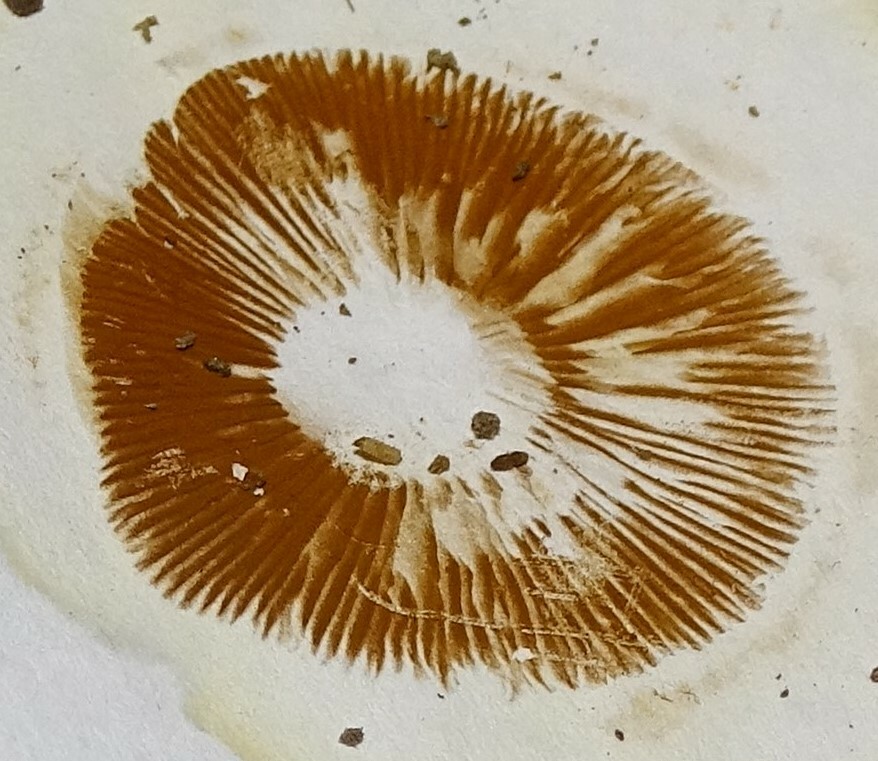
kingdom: Fungi
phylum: Basidiomycota
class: Agaricomycetes
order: Agaricales
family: Hymenogastraceae
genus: Gymnopilus
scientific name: Gymnopilus luteus
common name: Yellow gymnopilus
